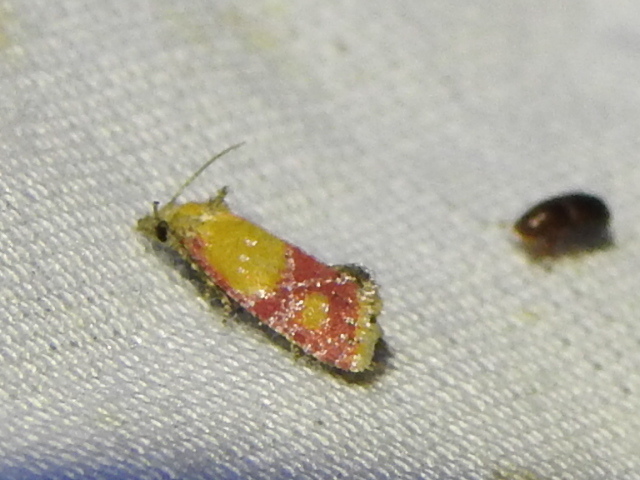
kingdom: Animalia
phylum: Arthropoda
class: Insecta
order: Lepidoptera
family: Tortricidae
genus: Conchylis
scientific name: Conchylis oenotherana
